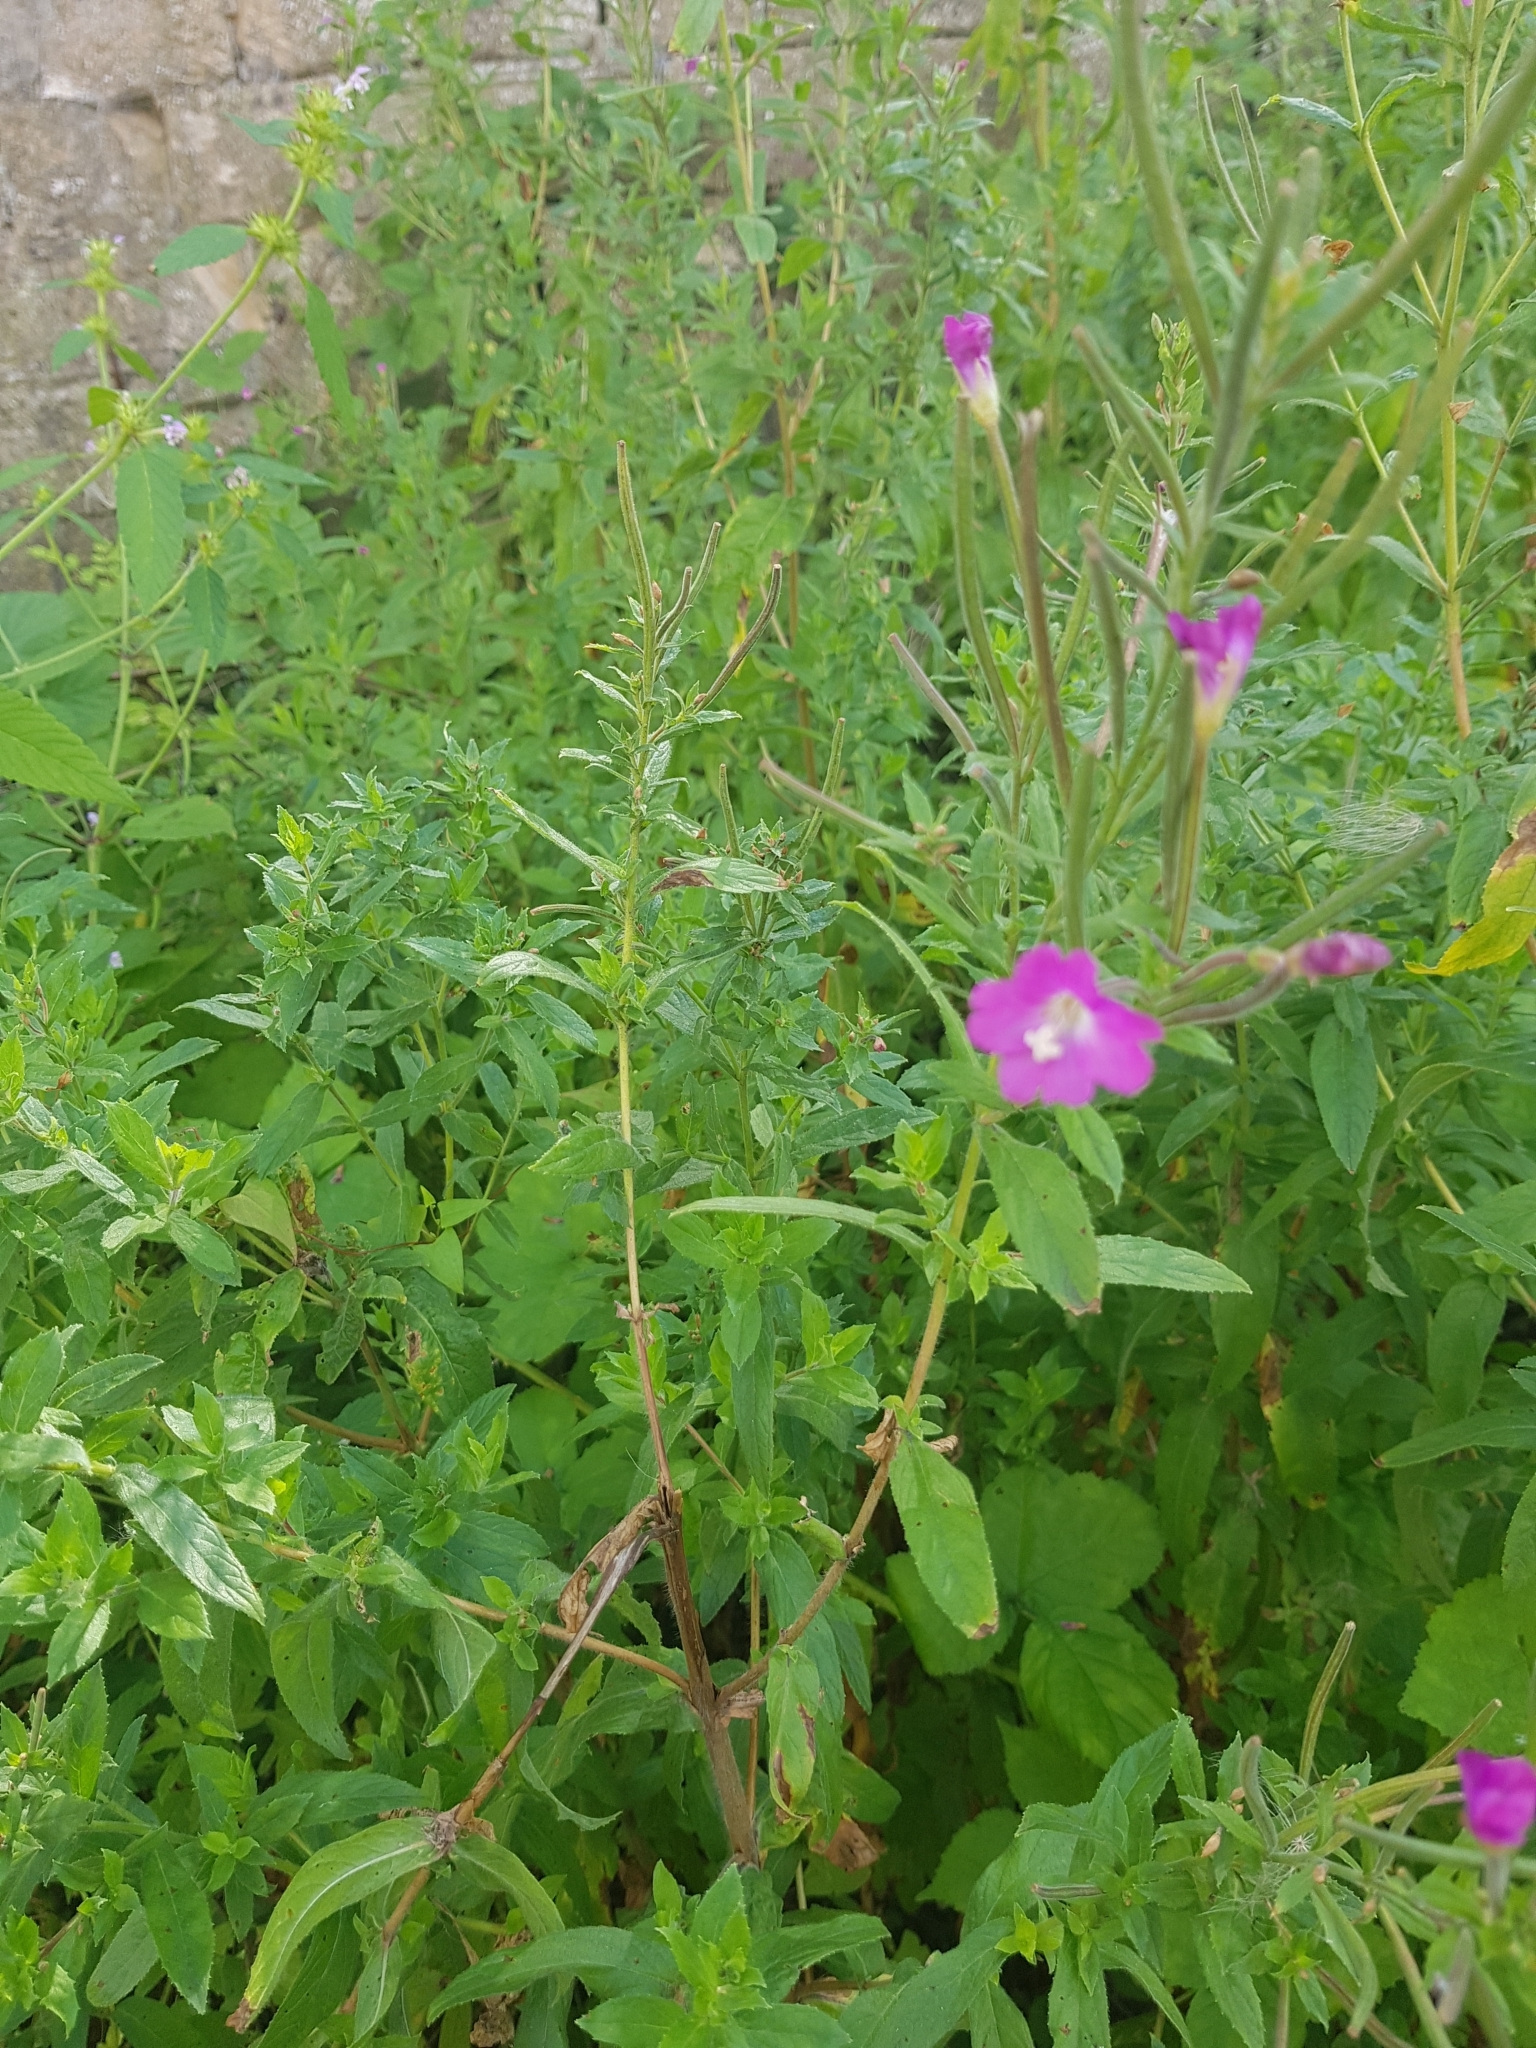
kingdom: Plantae
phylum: Tracheophyta
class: Magnoliopsida
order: Myrtales
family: Onagraceae
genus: Epilobium
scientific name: Epilobium hirsutum
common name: Great willowherb
